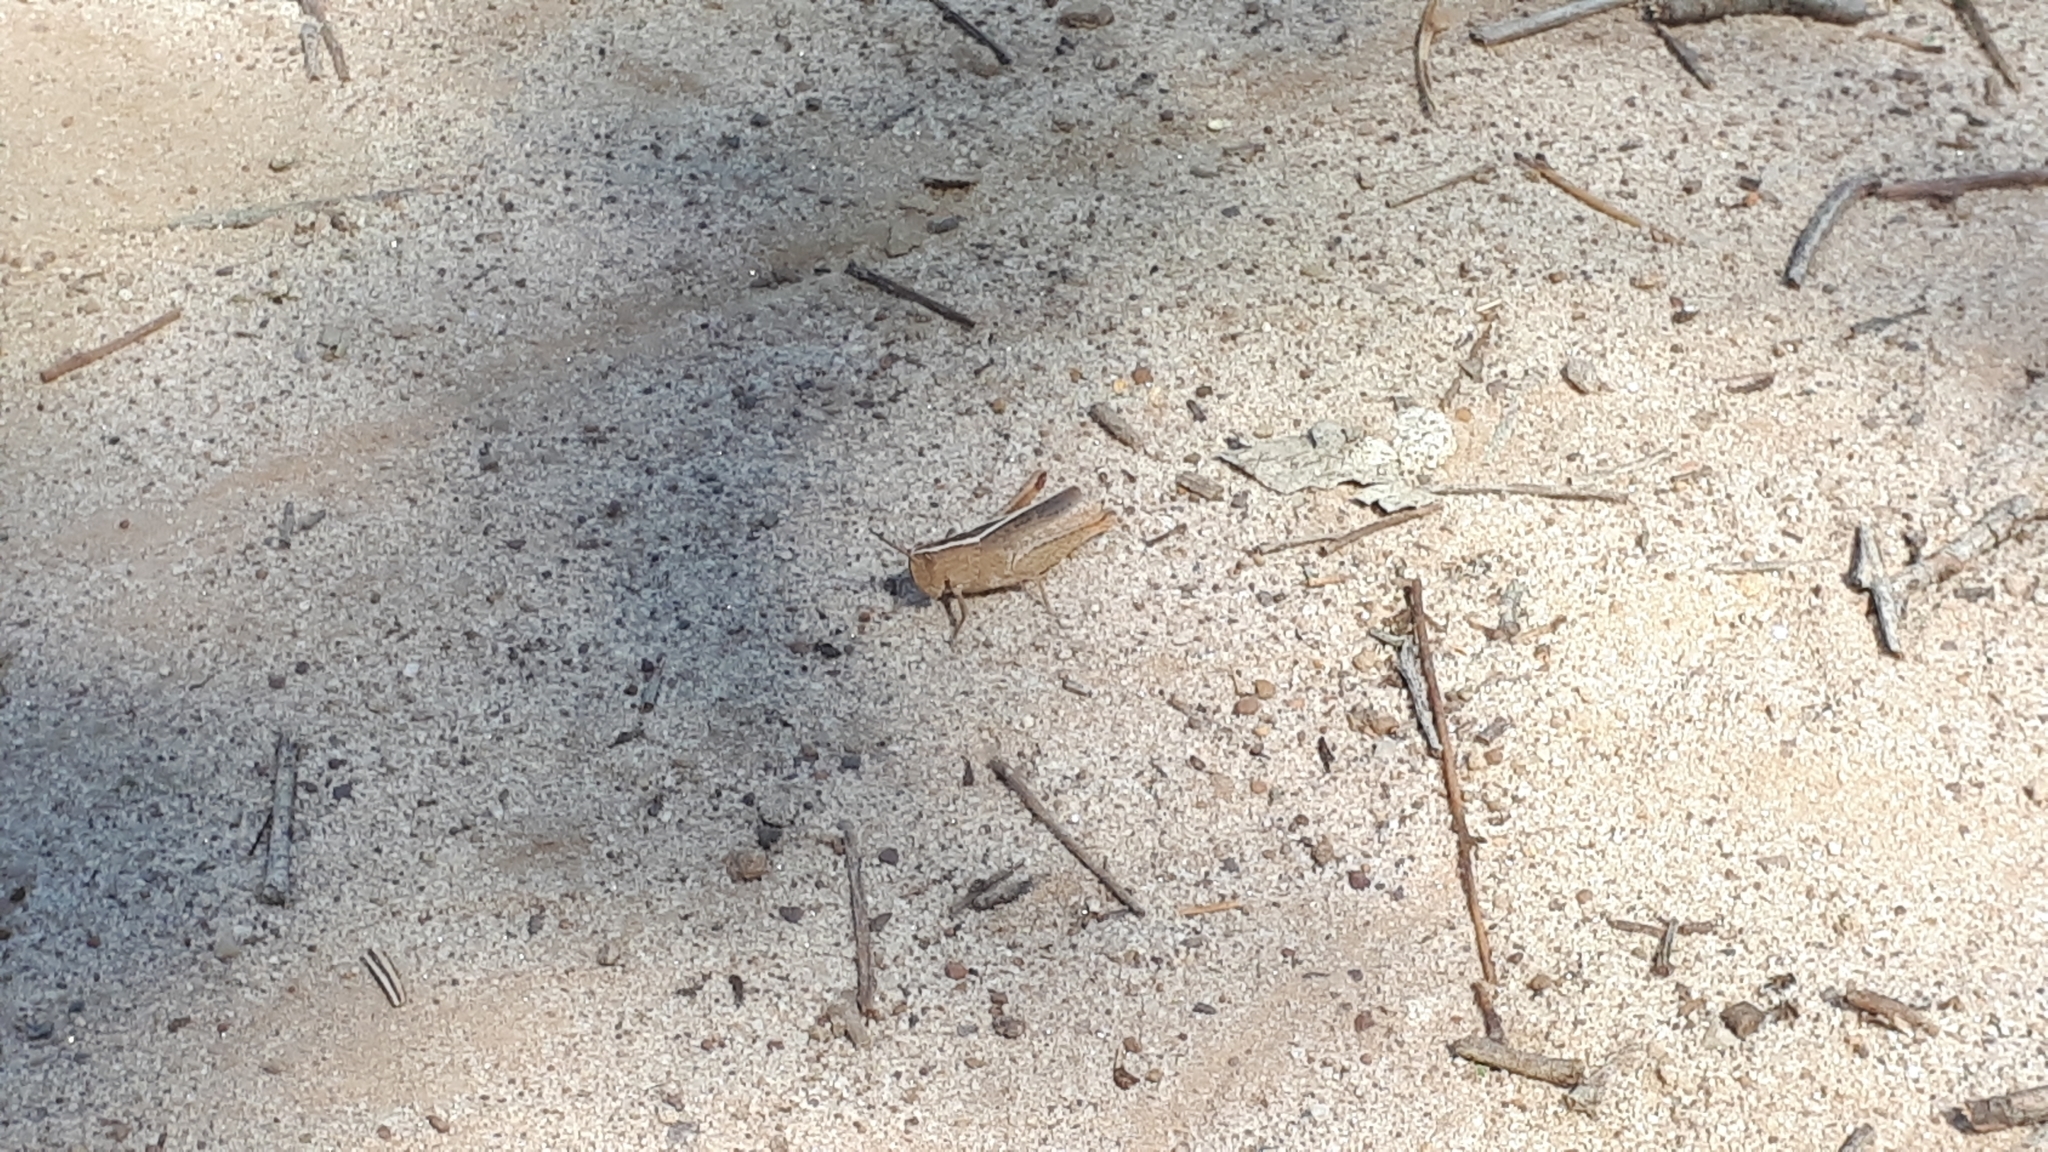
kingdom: Animalia
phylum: Arthropoda
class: Insecta
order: Orthoptera
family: Acrididae
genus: Apotropis
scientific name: Apotropis tricarinata
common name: Eastern striped grasshopper
